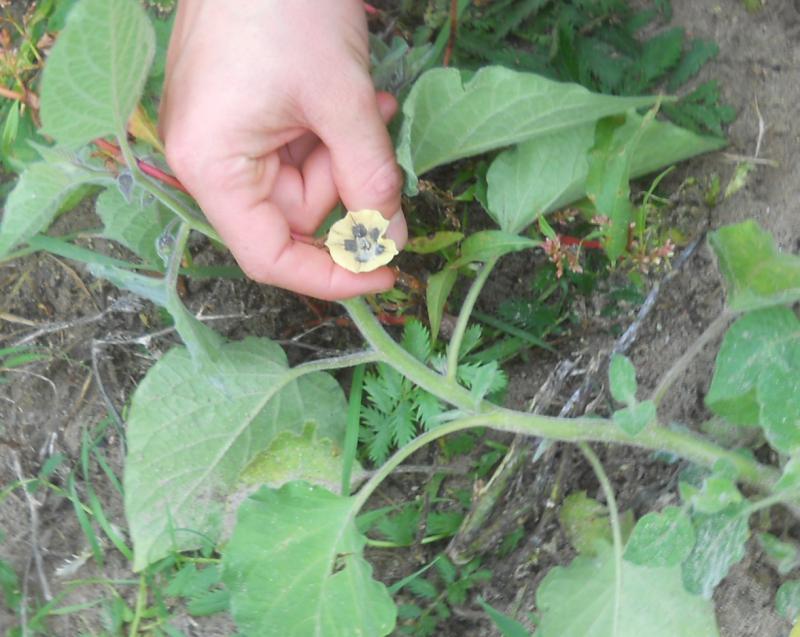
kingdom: Plantae
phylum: Tracheophyta
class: Magnoliopsida
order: Solanales
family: Solanaceae
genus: Physalis
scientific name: Physalis peruviana
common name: Cape-gooseberry
